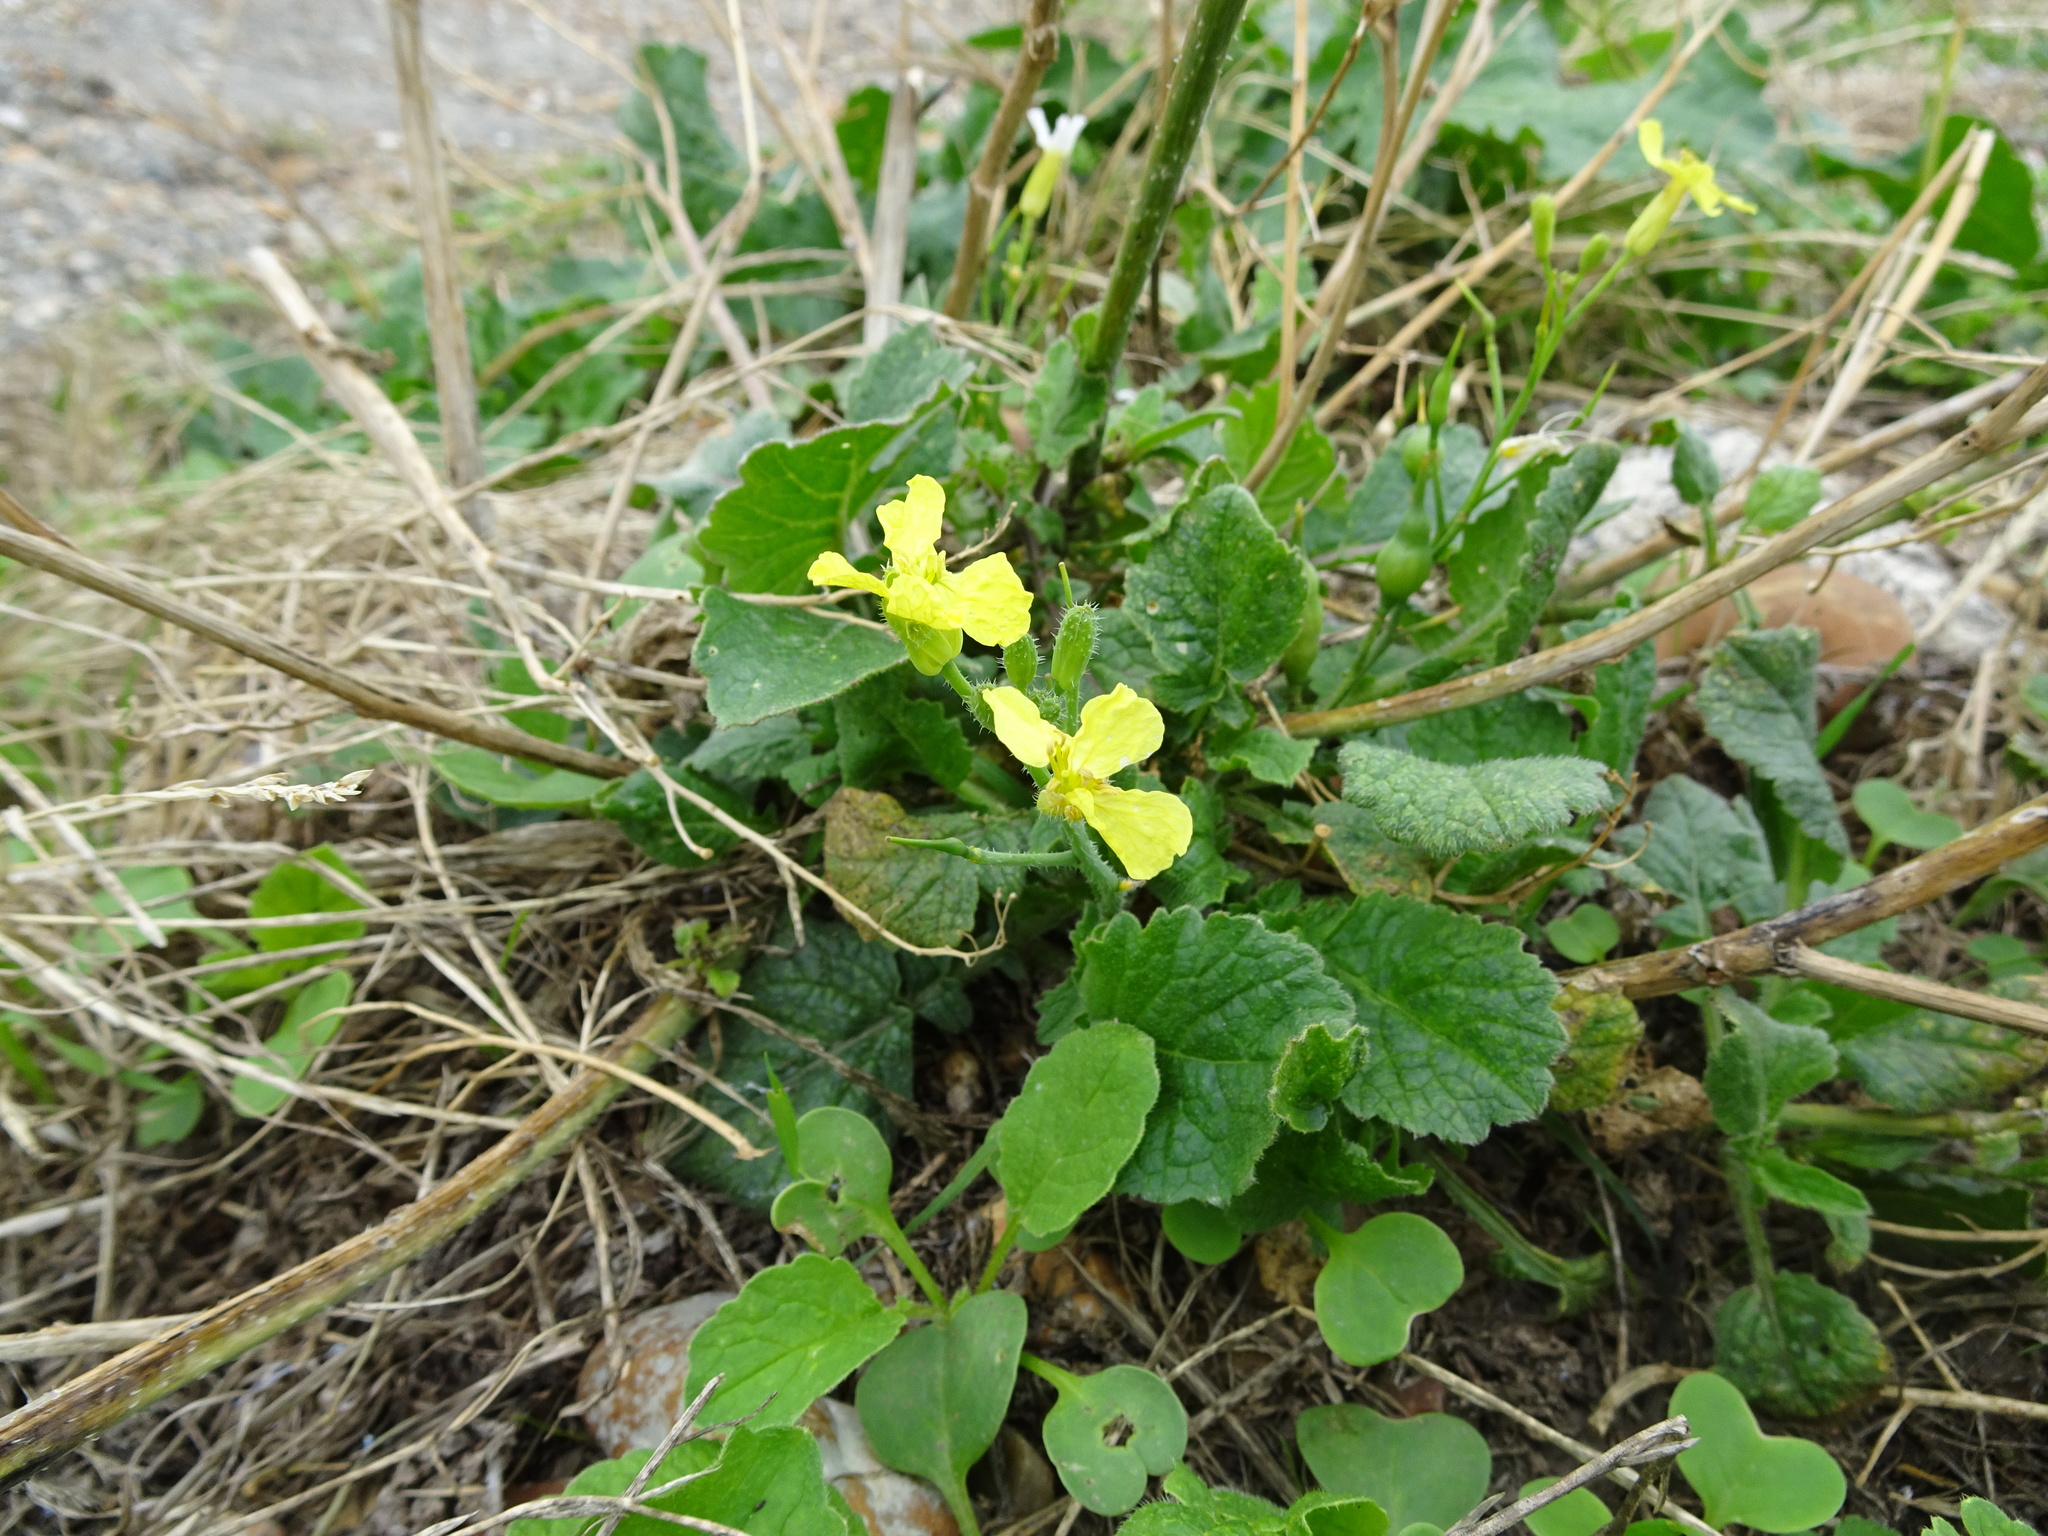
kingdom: Plantae
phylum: Tracheophyta
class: Magnoliopsida
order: Brassicales
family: Brassicaceae
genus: Raphanus
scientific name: Raphanus raphanistrum
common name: Wild radish
